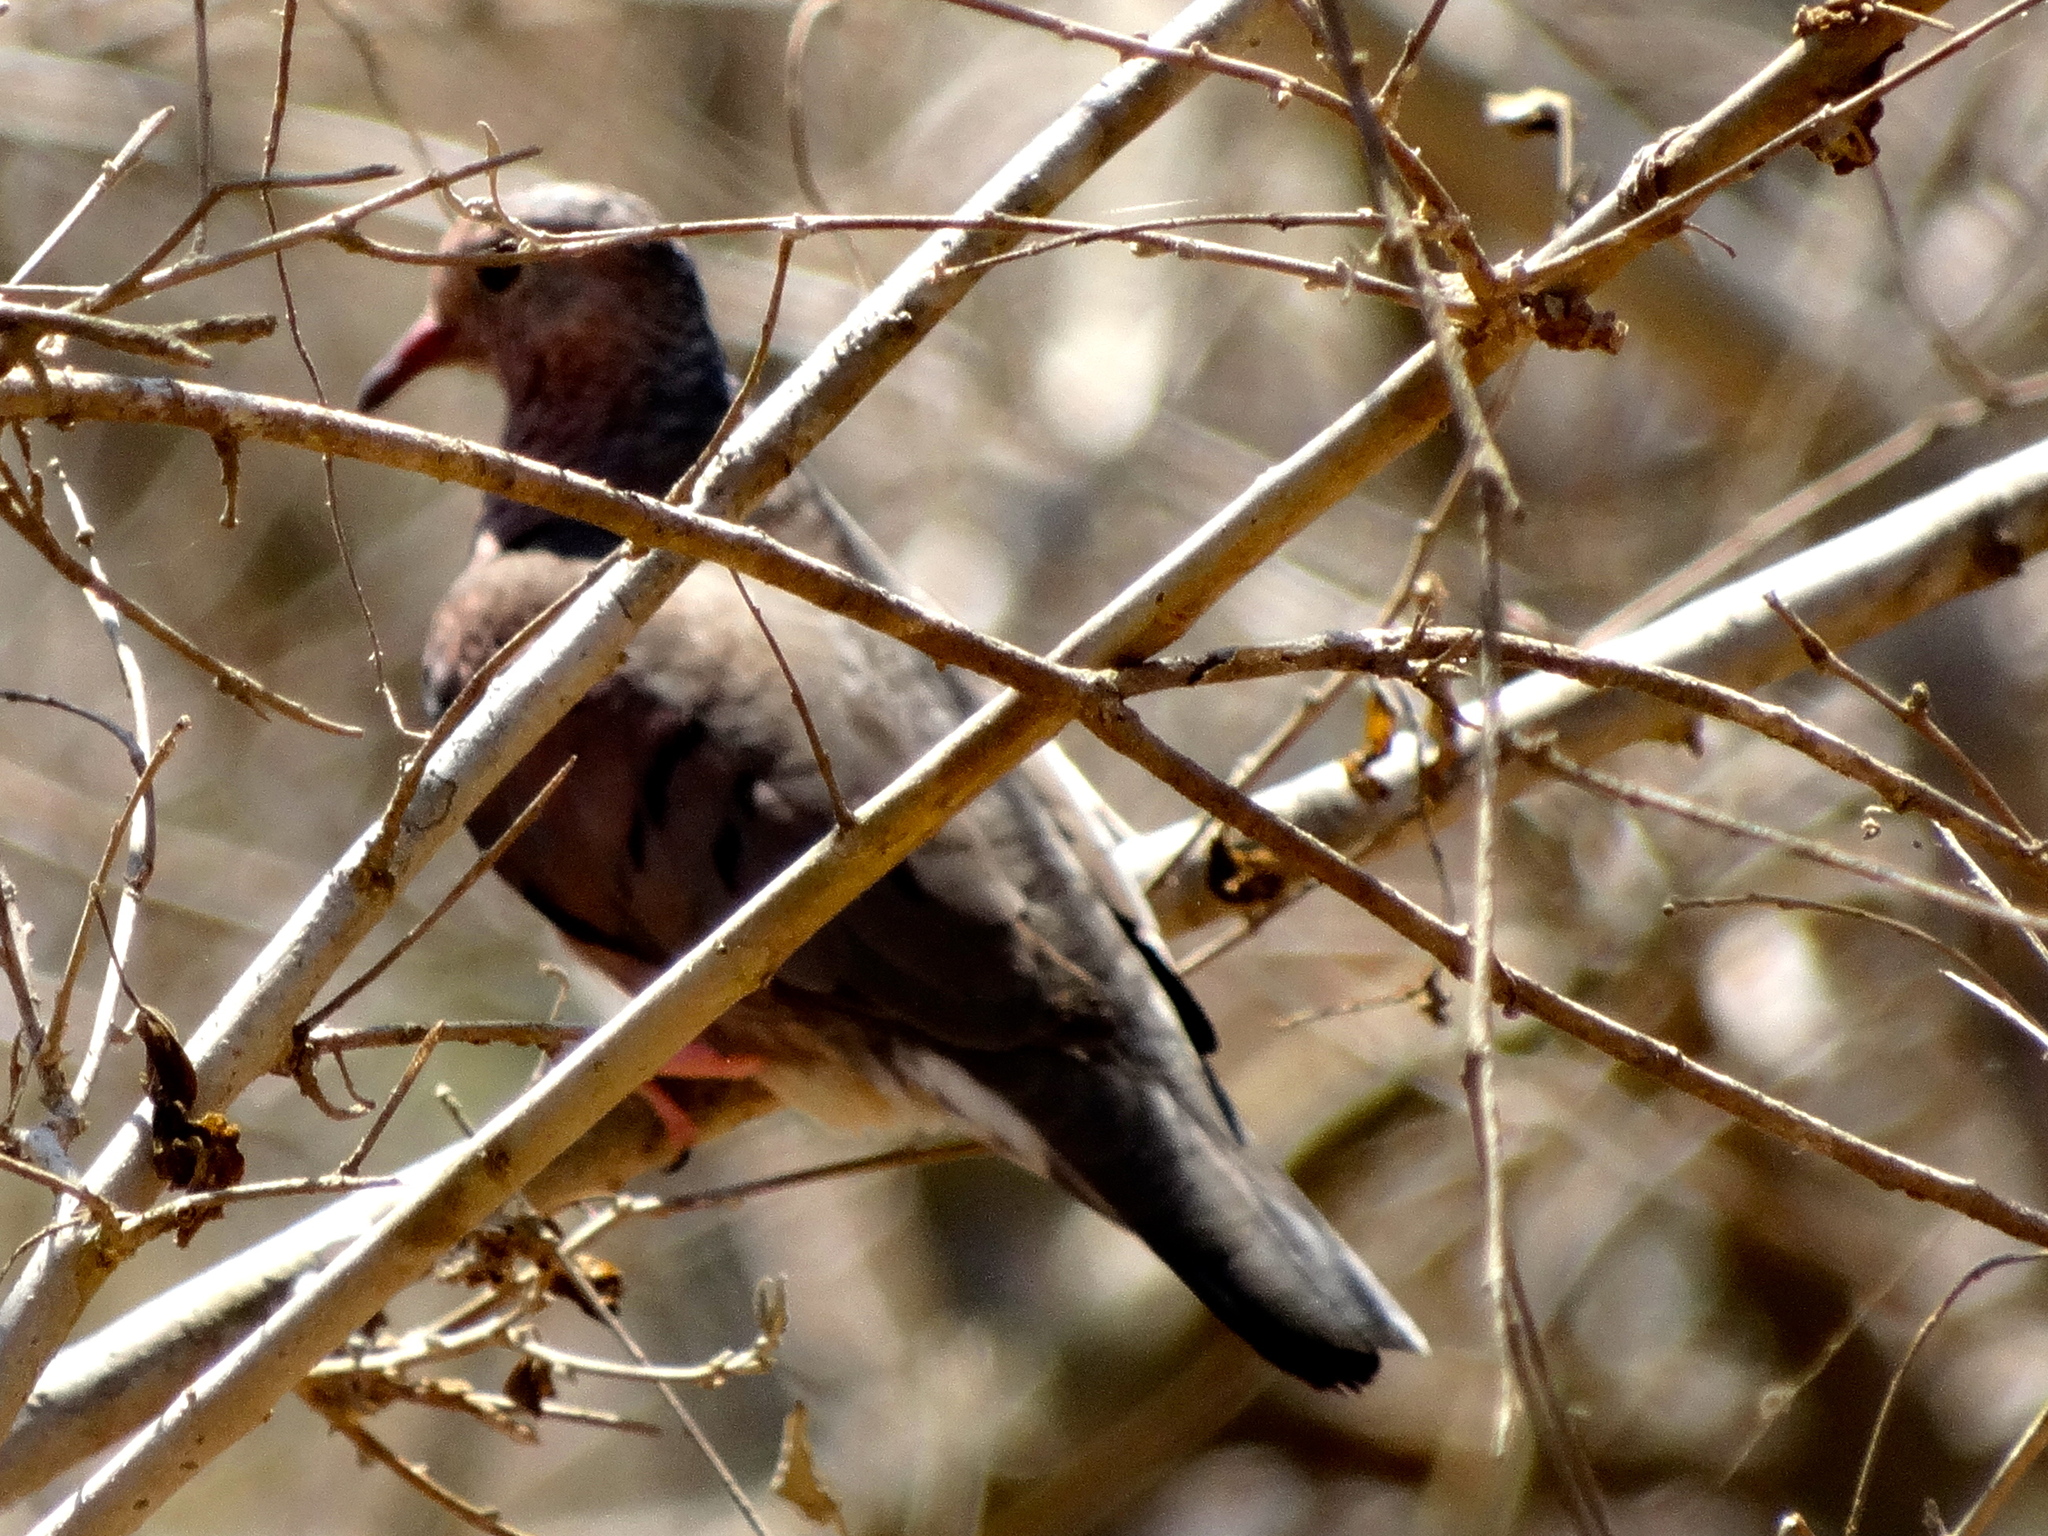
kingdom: Animalia
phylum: Chordata
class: Aves
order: Columbiformes
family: Columbidae
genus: Columbina
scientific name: Columbina passerina
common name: Common ground-dove
